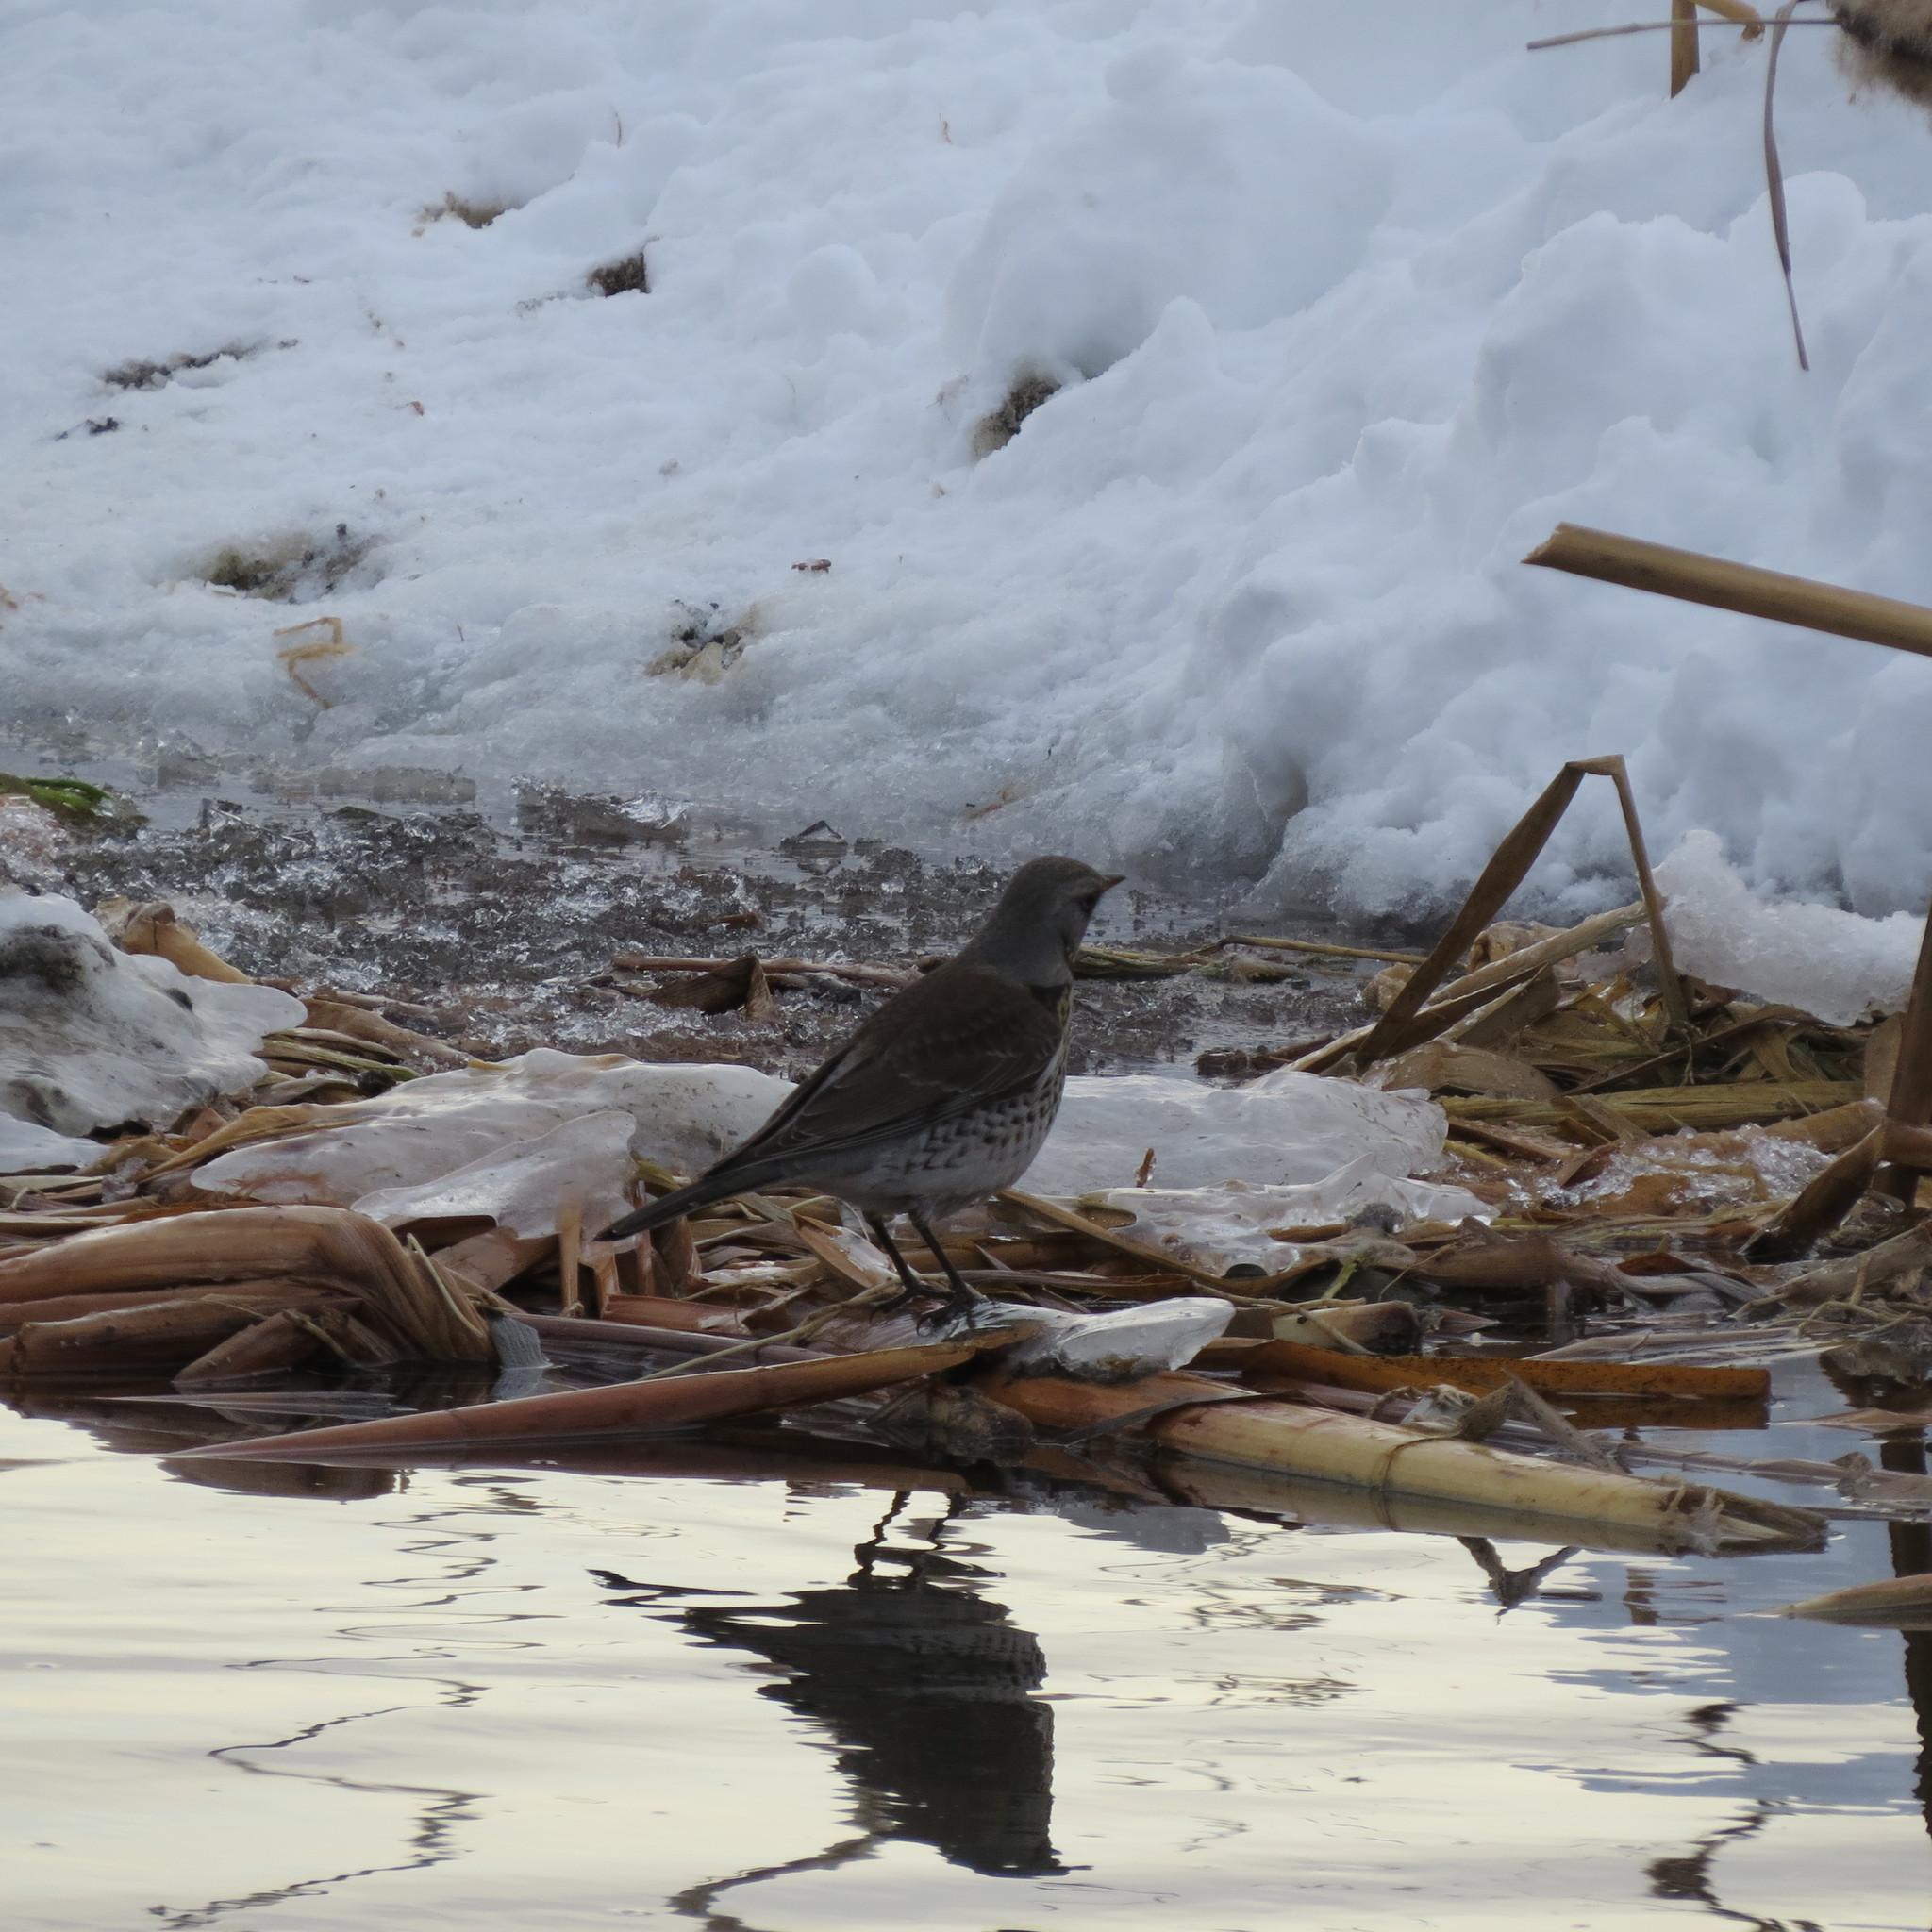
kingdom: Animalia
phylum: Chordata
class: Aves
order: Passeriformes
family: Turdidae
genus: Turdus
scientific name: Turdus pilaris
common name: Fieldfare
